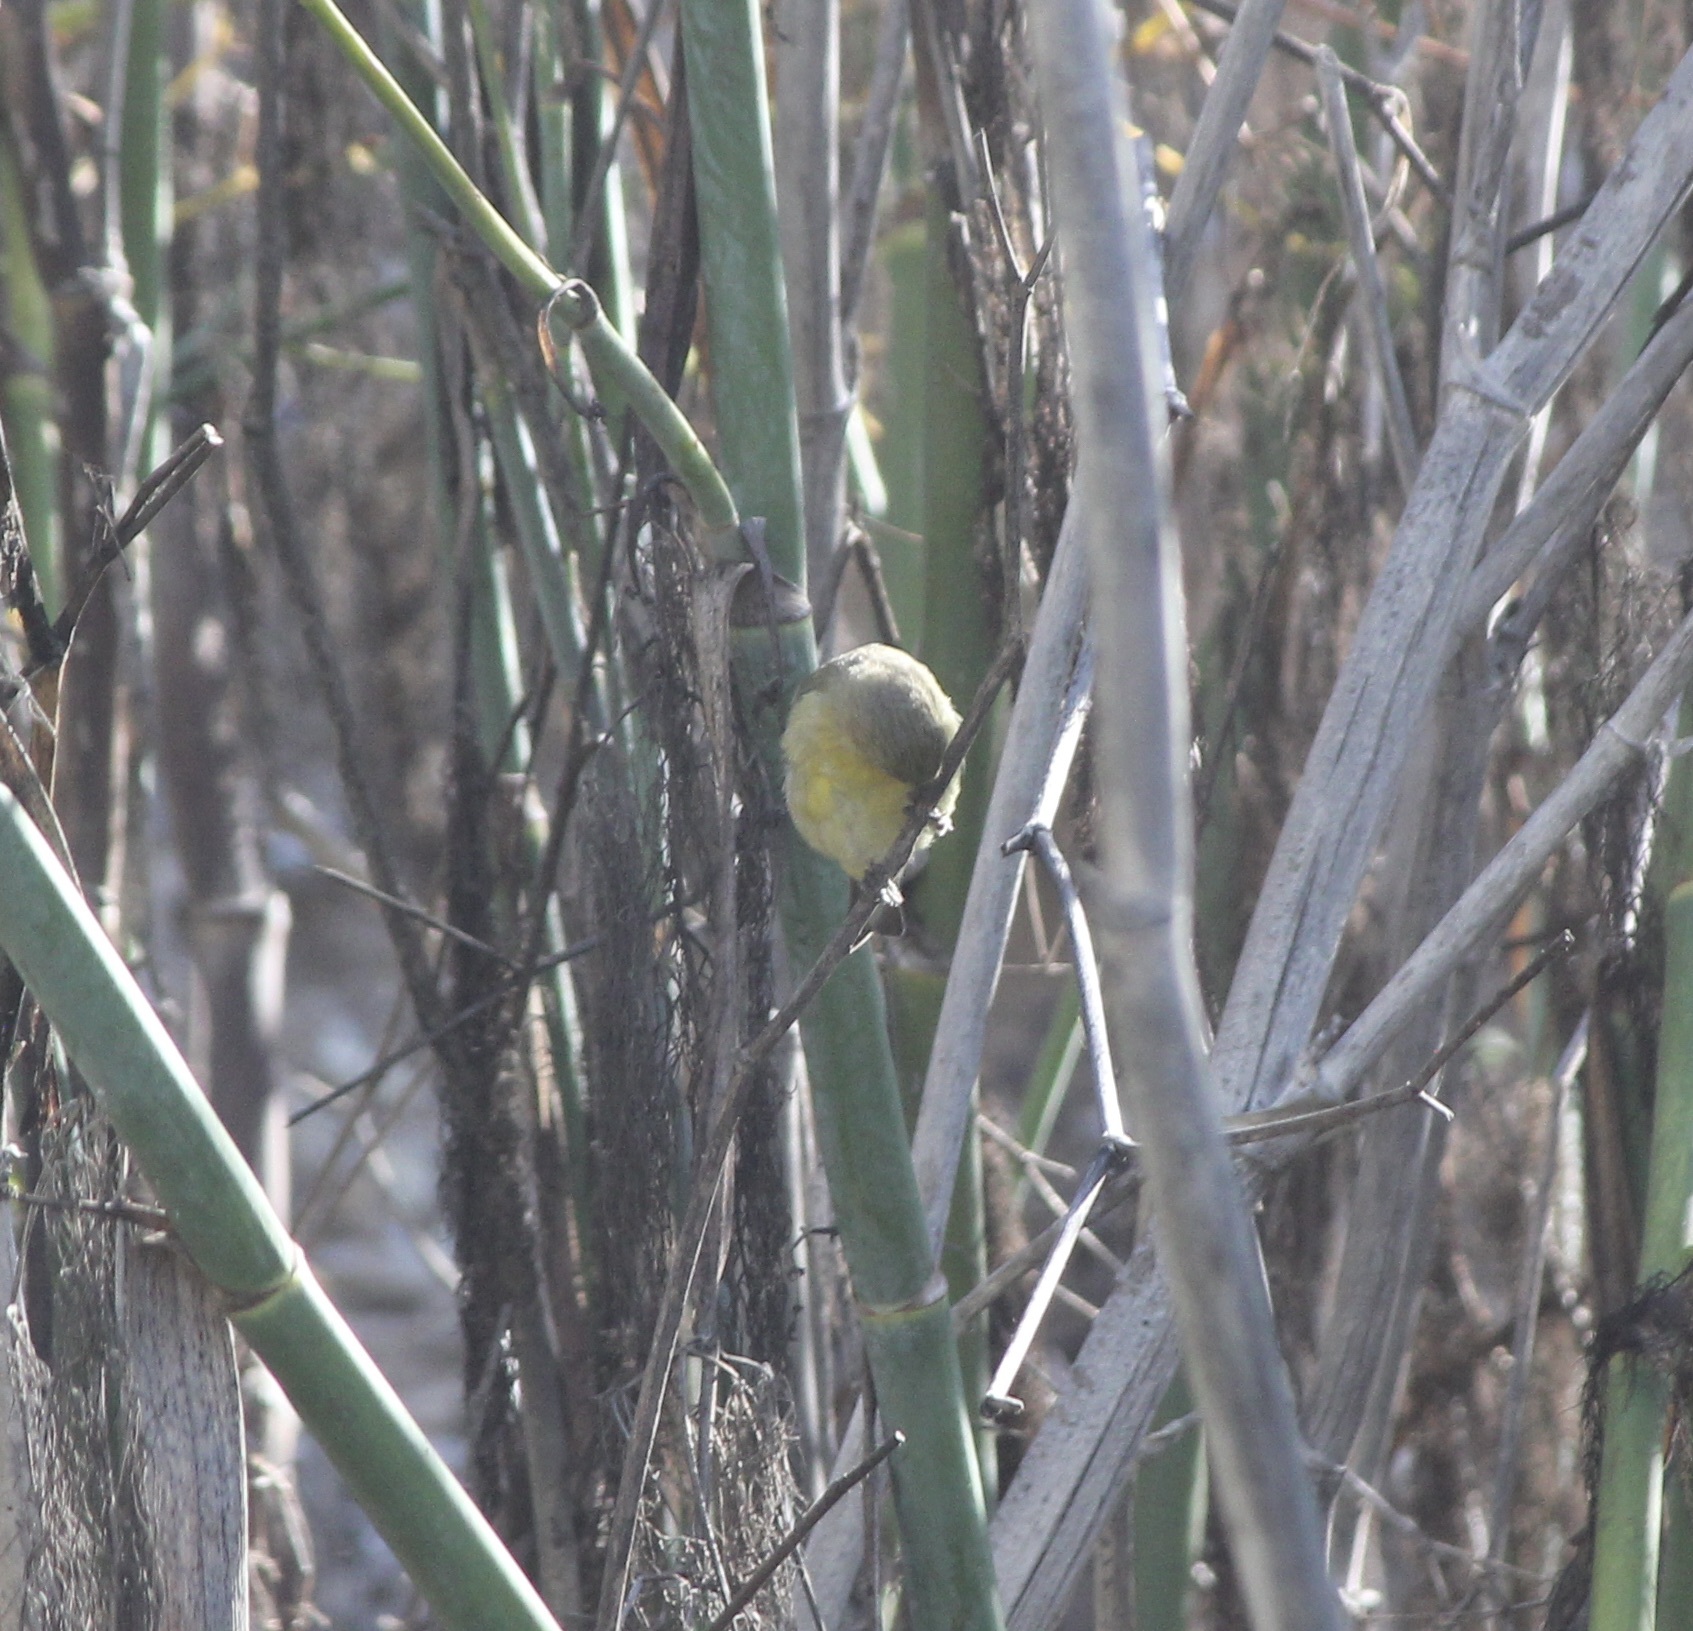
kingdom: Animalia
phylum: Chordata
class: Aves
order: Passeriformes
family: Fringillidae
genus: Spinus
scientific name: Spinus psaltria
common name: Lesser goldfinch
